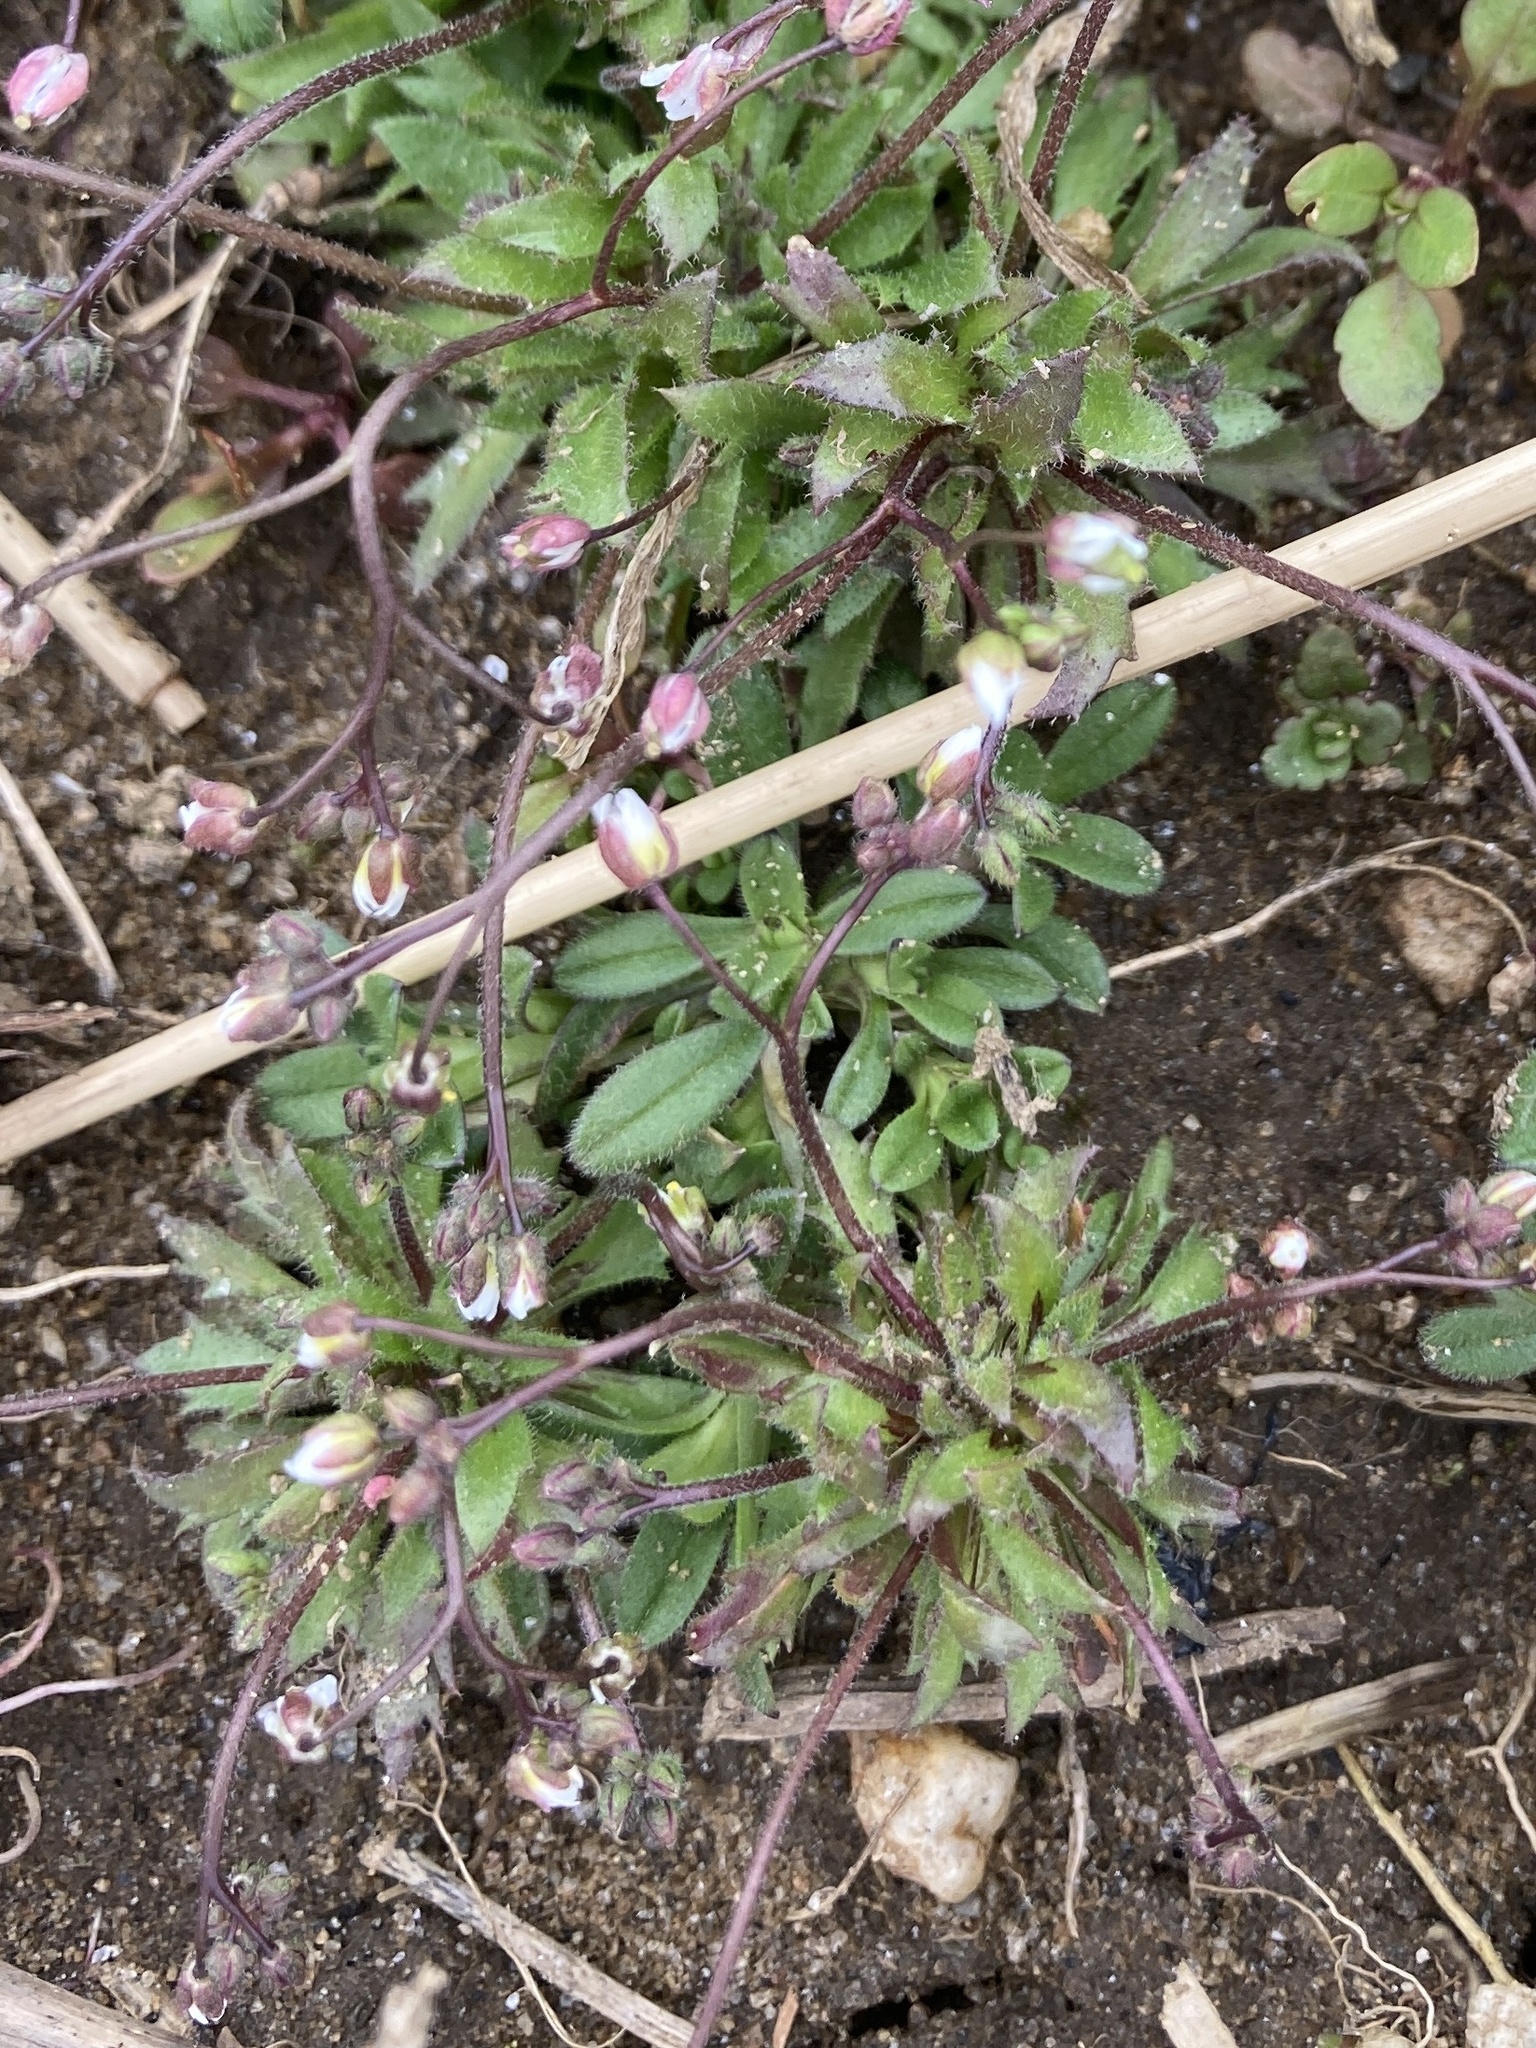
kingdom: Plantae
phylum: Tracheophyta
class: Magnoliopsida
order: Brassicales
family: Brassicaceae
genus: Draba
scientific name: Draba verna
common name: Spring draba
